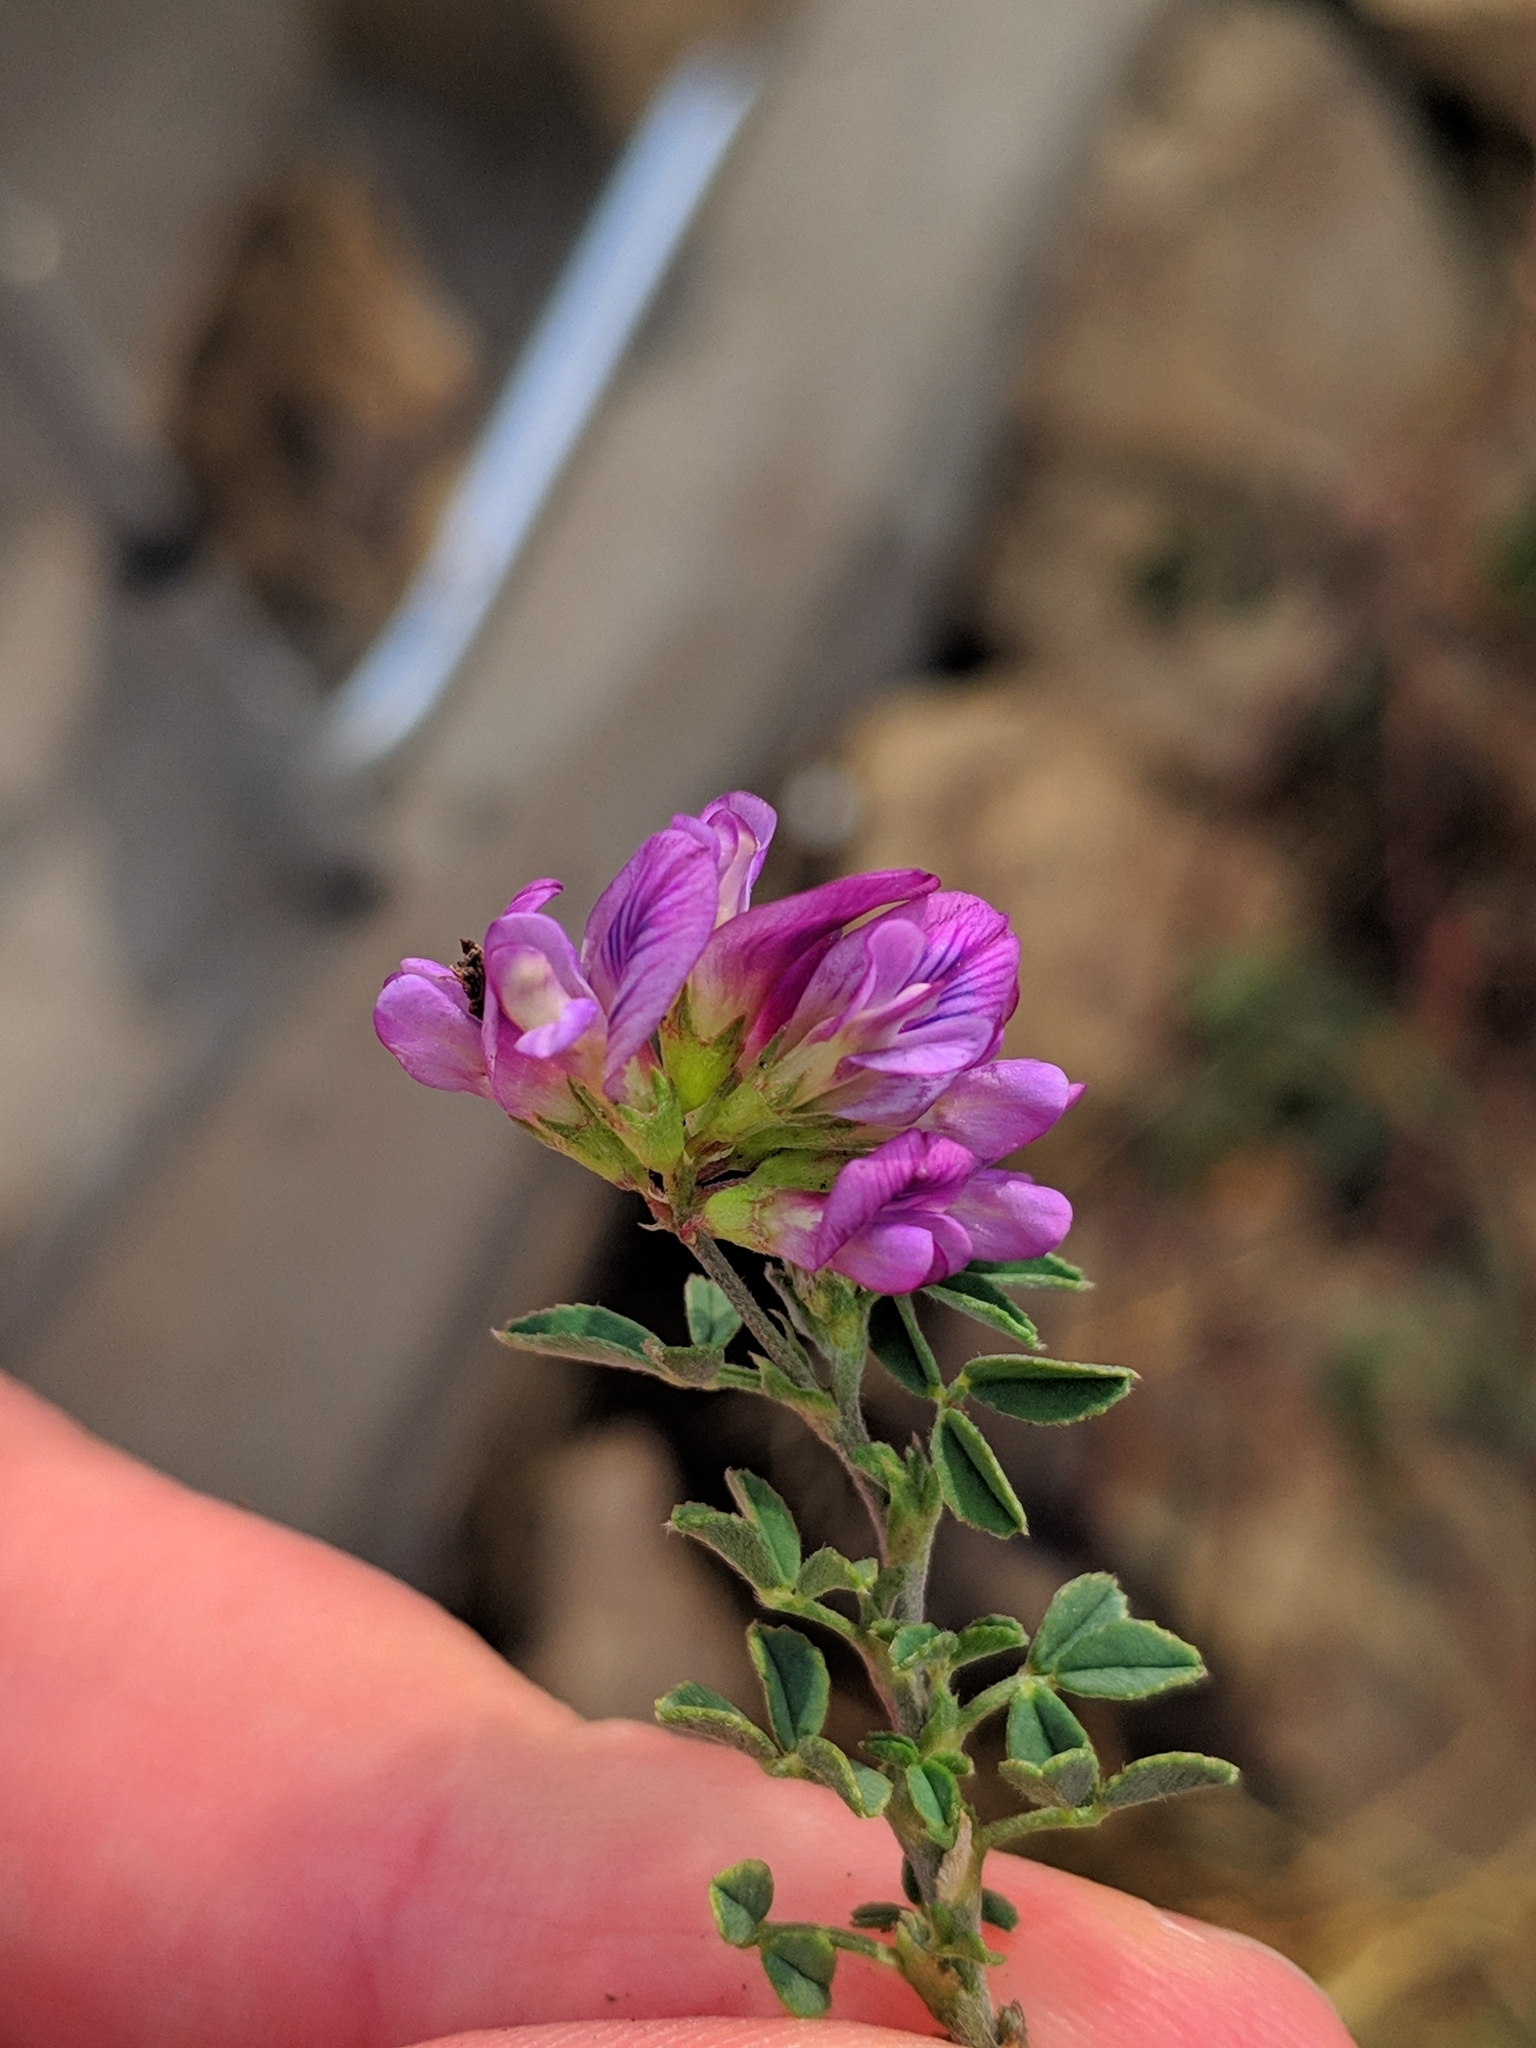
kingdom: Plantae
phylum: Tracheophyta
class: Magnoliopsida
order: Fabales
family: Fabaceae
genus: Medicago
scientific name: Medicago sativa
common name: Alfalfa
